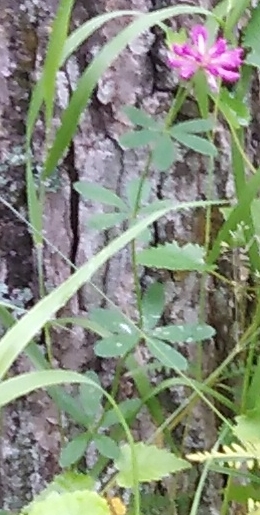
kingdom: Plantae
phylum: Tracheophyta
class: Magnoliopsida
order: Fabales
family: Fabaceae
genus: Trifolium
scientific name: Trifolium lupinaster
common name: Lupine clover
